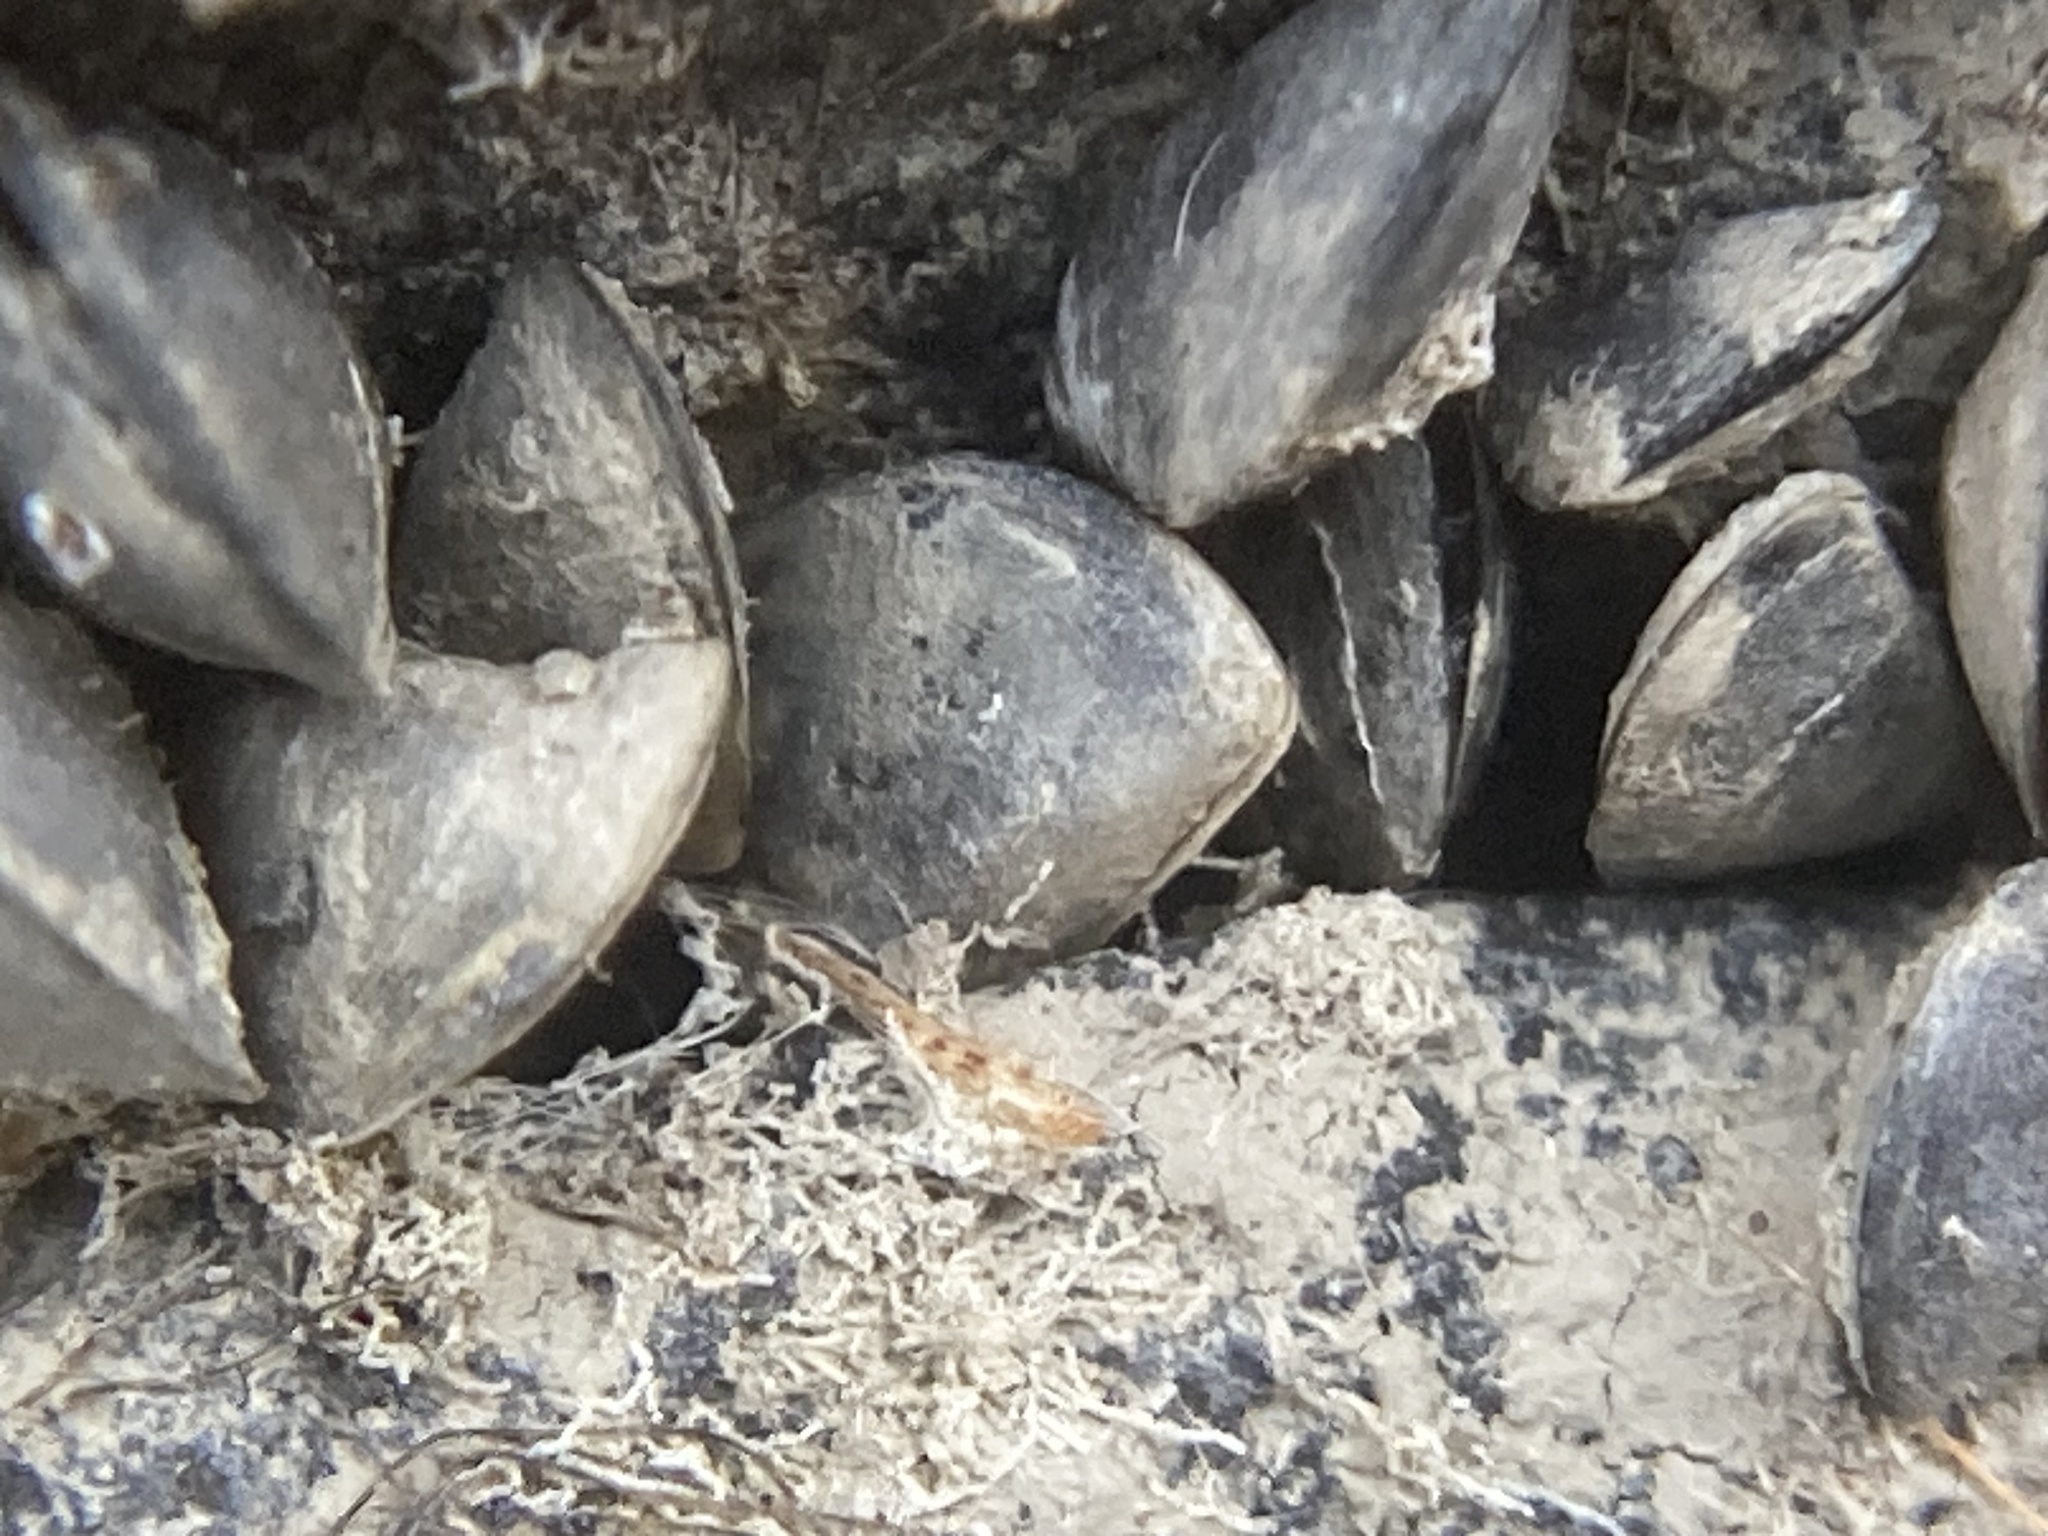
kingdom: Animalia
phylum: Mollusca
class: Bivalvia
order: Myida
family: Dreissenidae
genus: Dreissena
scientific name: Dreissena polymorpha
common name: Zebra mussel
